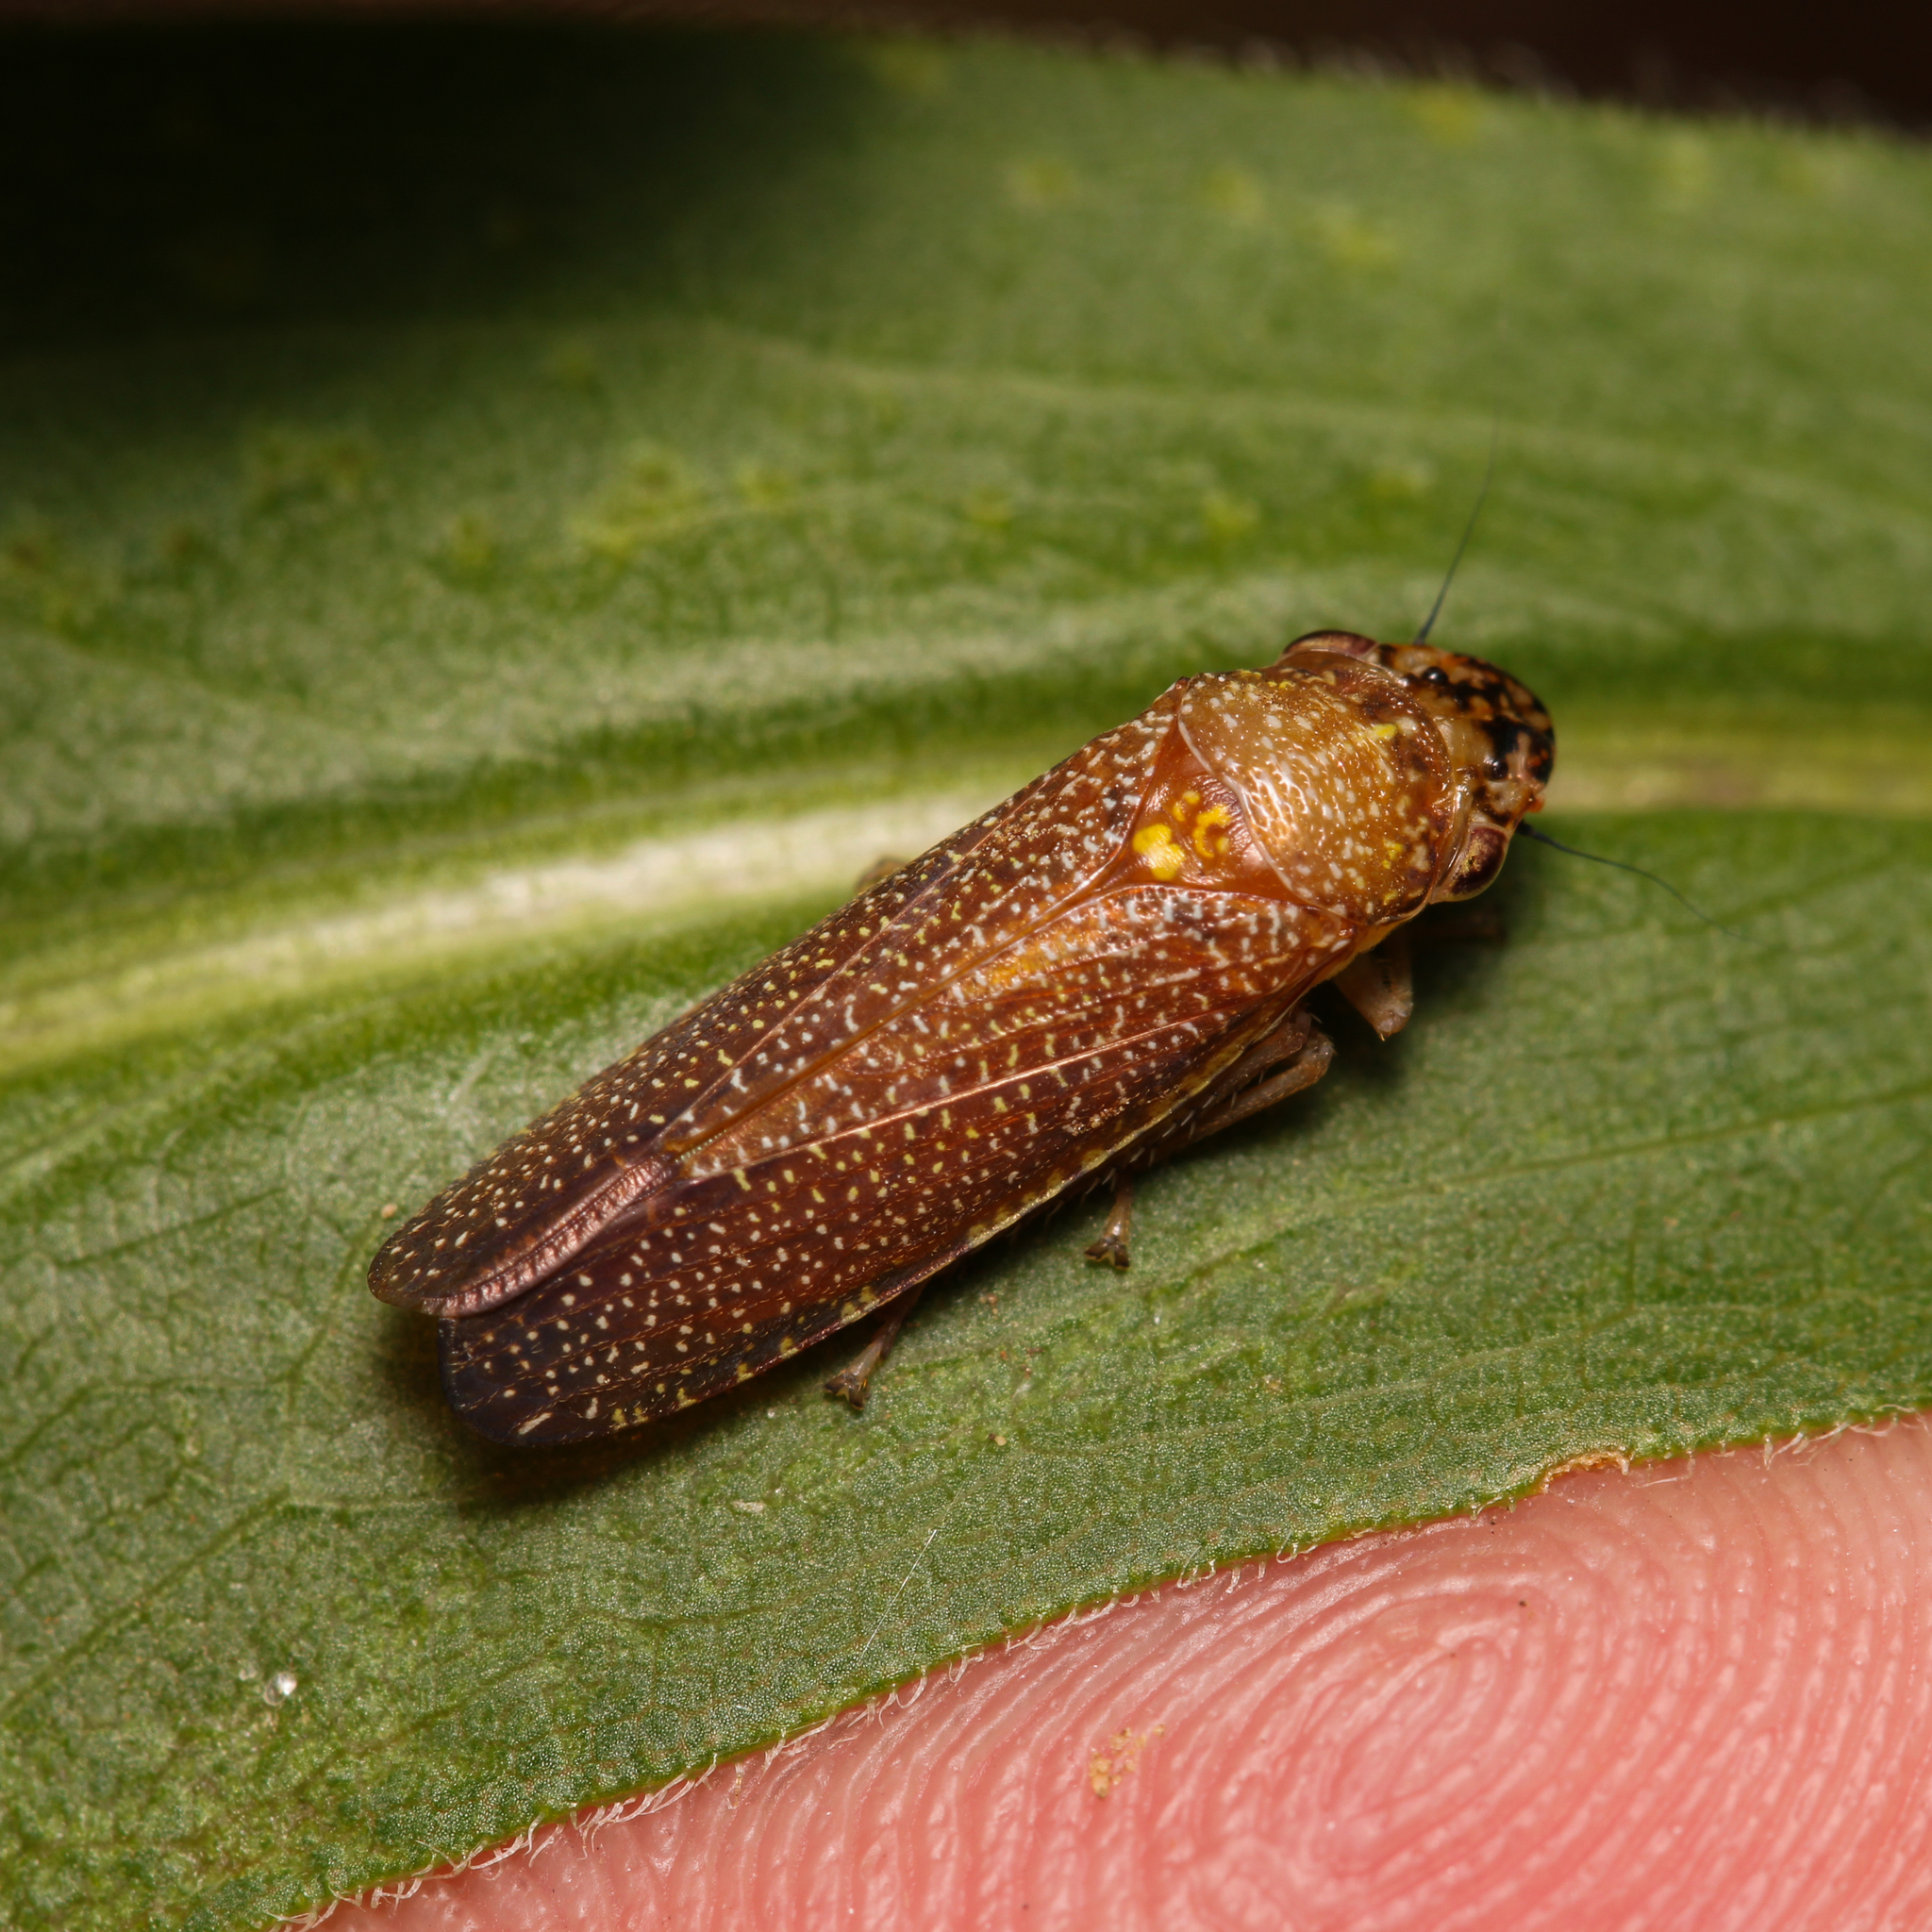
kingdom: Animalia
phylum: Arthropoda
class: Insecta
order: Hemiptera
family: Cicadellidae
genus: Paraulacizes
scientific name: Paraulacizes irrorata
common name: Speckled sharpshooter
